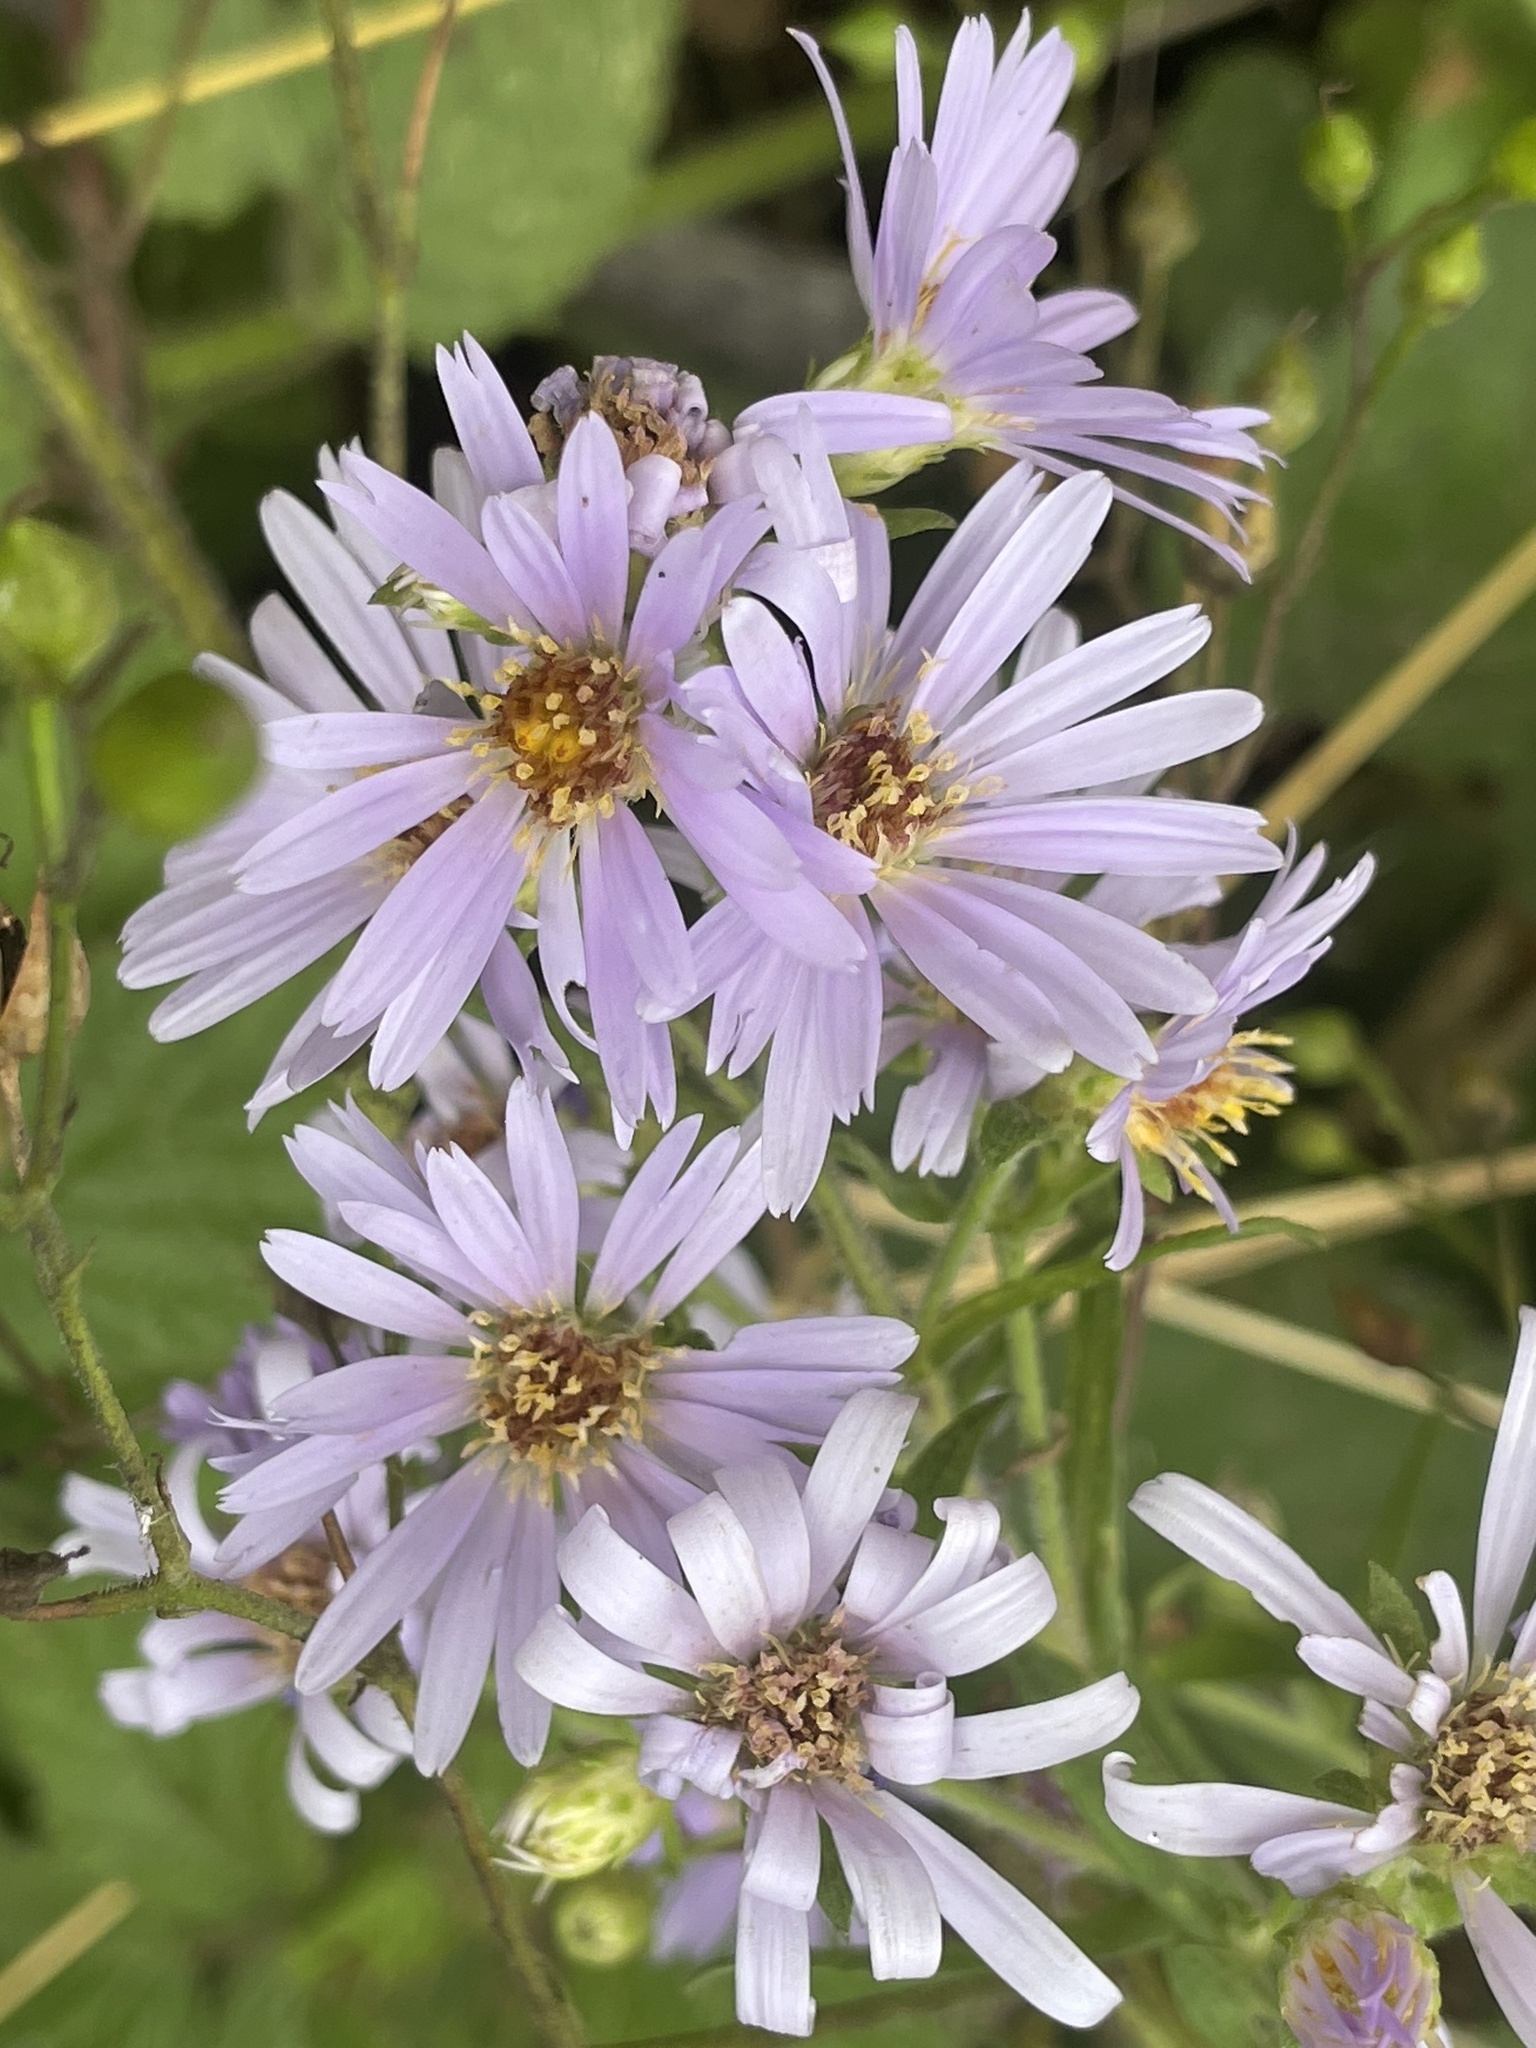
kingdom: Plantae
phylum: Tracheophyta
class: Magnoliopsida
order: Asterales
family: Asteraceae
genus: Symphyotrichum
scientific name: Symphyotrichum chilense
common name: Pacific aster
